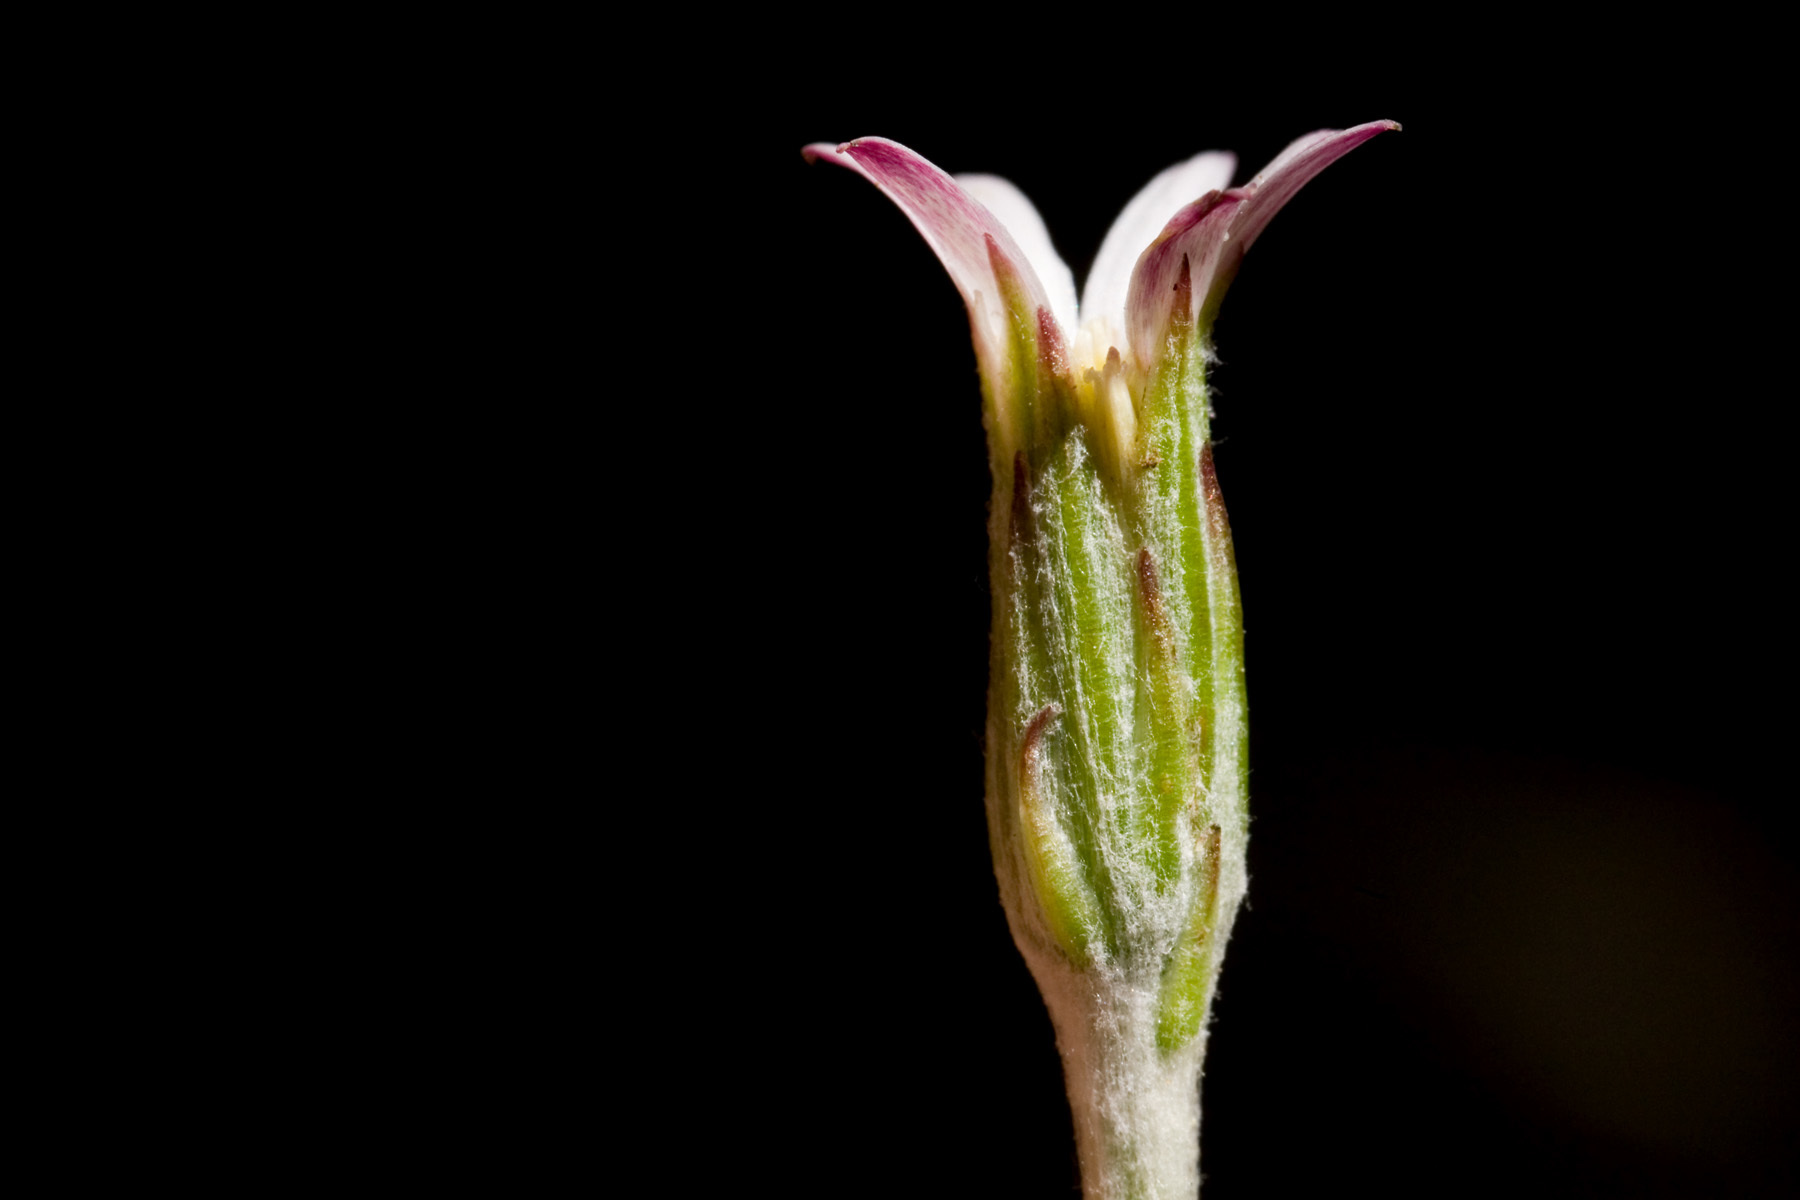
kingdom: Plantae
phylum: Tracheophyta
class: Magnoliopsida
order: Asterales
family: Asteraceae
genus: Leibnitzia
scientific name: Leibnitzia lyrata
